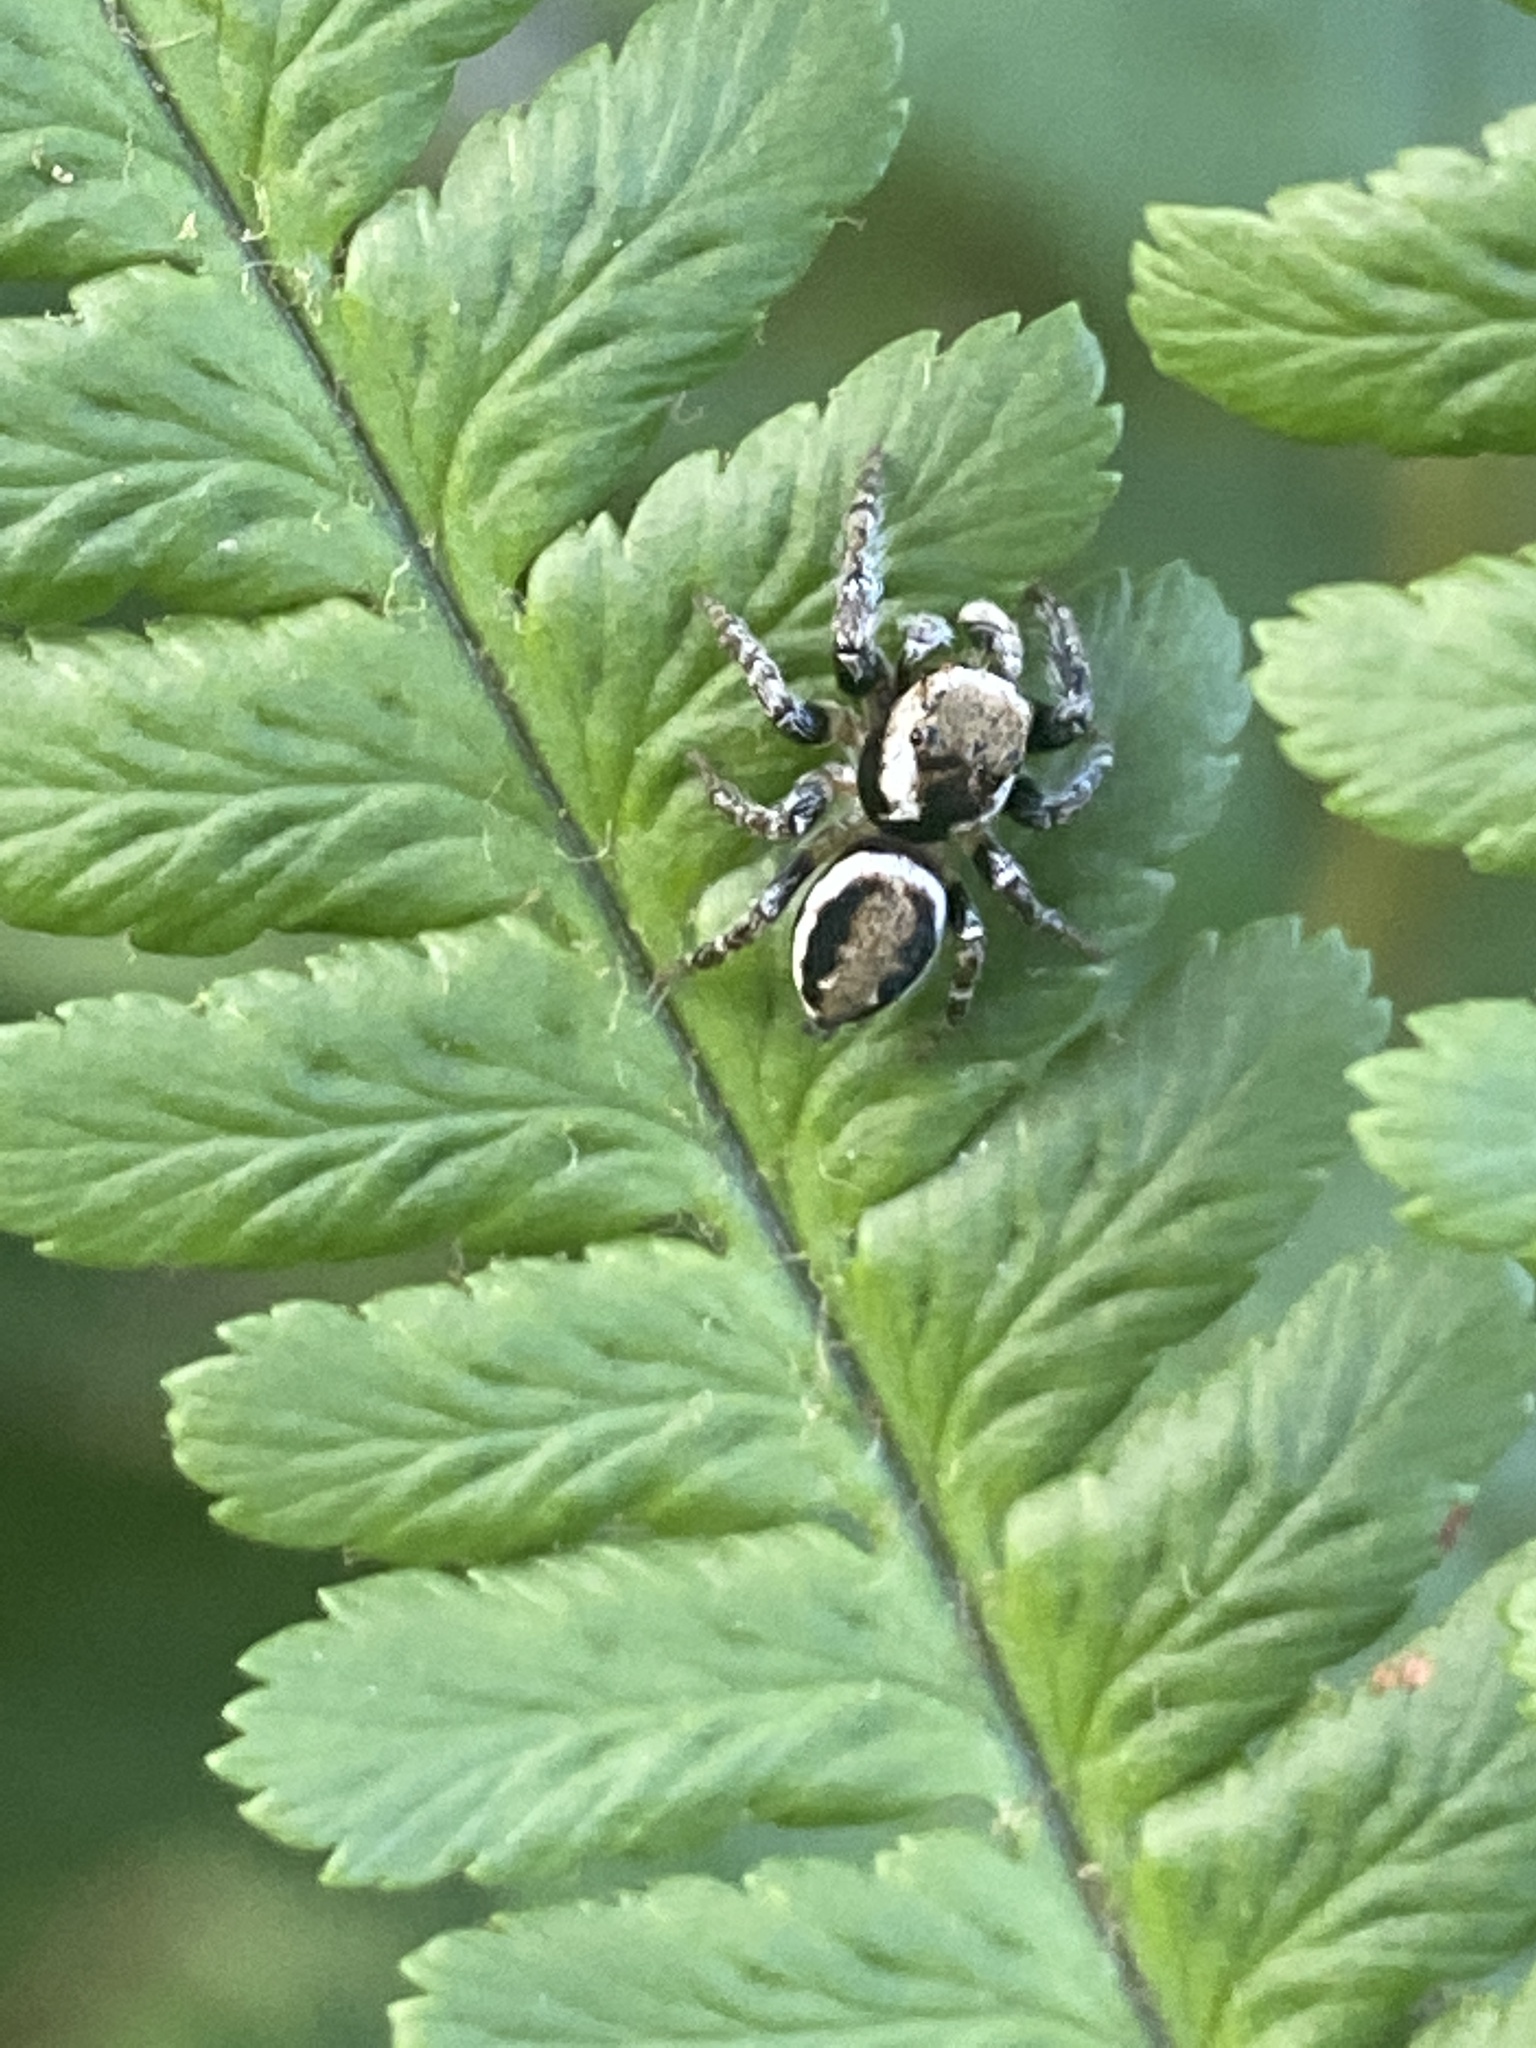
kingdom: Animalia
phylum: Arthropoda
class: Arachnida
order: Araneae
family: Salticidae
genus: Evarcha
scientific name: Evarcha falcata
